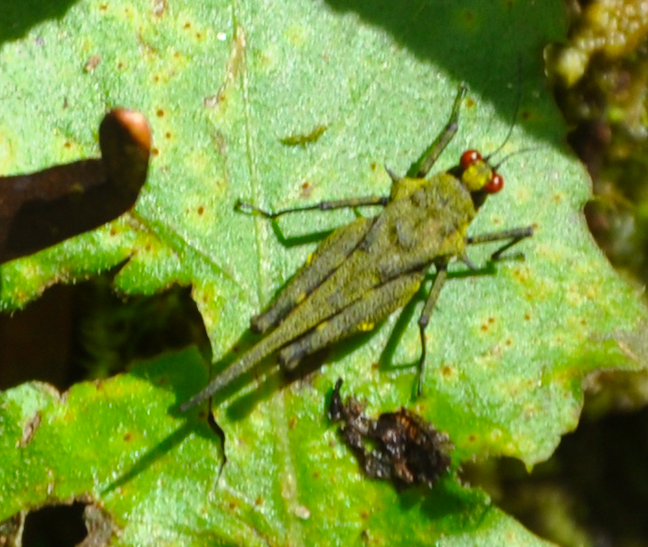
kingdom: Animalia
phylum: Arthropoda
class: Insecta
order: Orthoptera
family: Tetrigidae
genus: Oxytettix
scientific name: Oxytettix arius
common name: Yellow-dot black pygmy grasshopper
